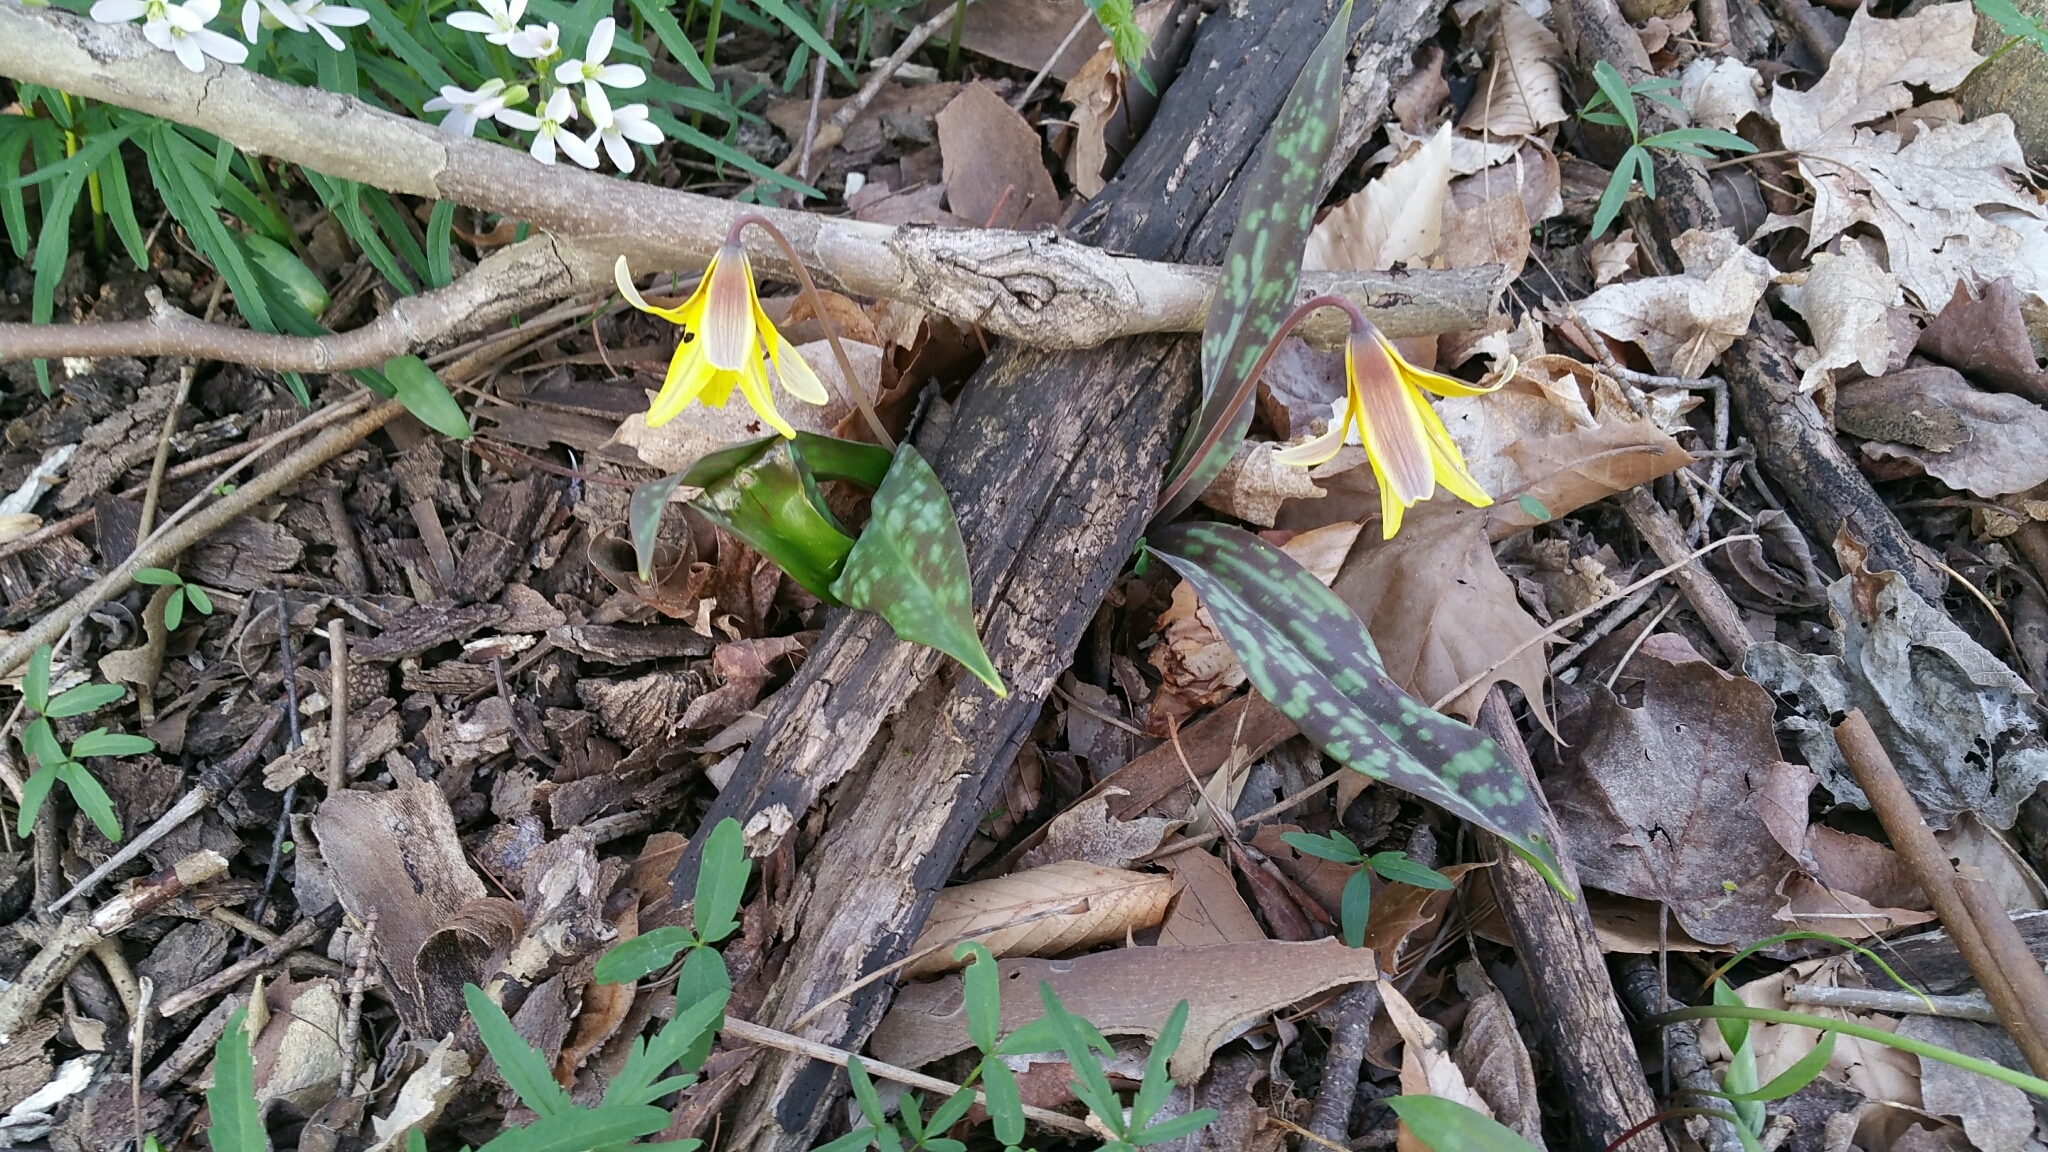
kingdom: Plantae
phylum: Tracheophyta
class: Liliopsida
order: Liliales
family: Liliaceae
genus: Erythronium
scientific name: Erythronium americanum
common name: Yellow adder's-tongue
